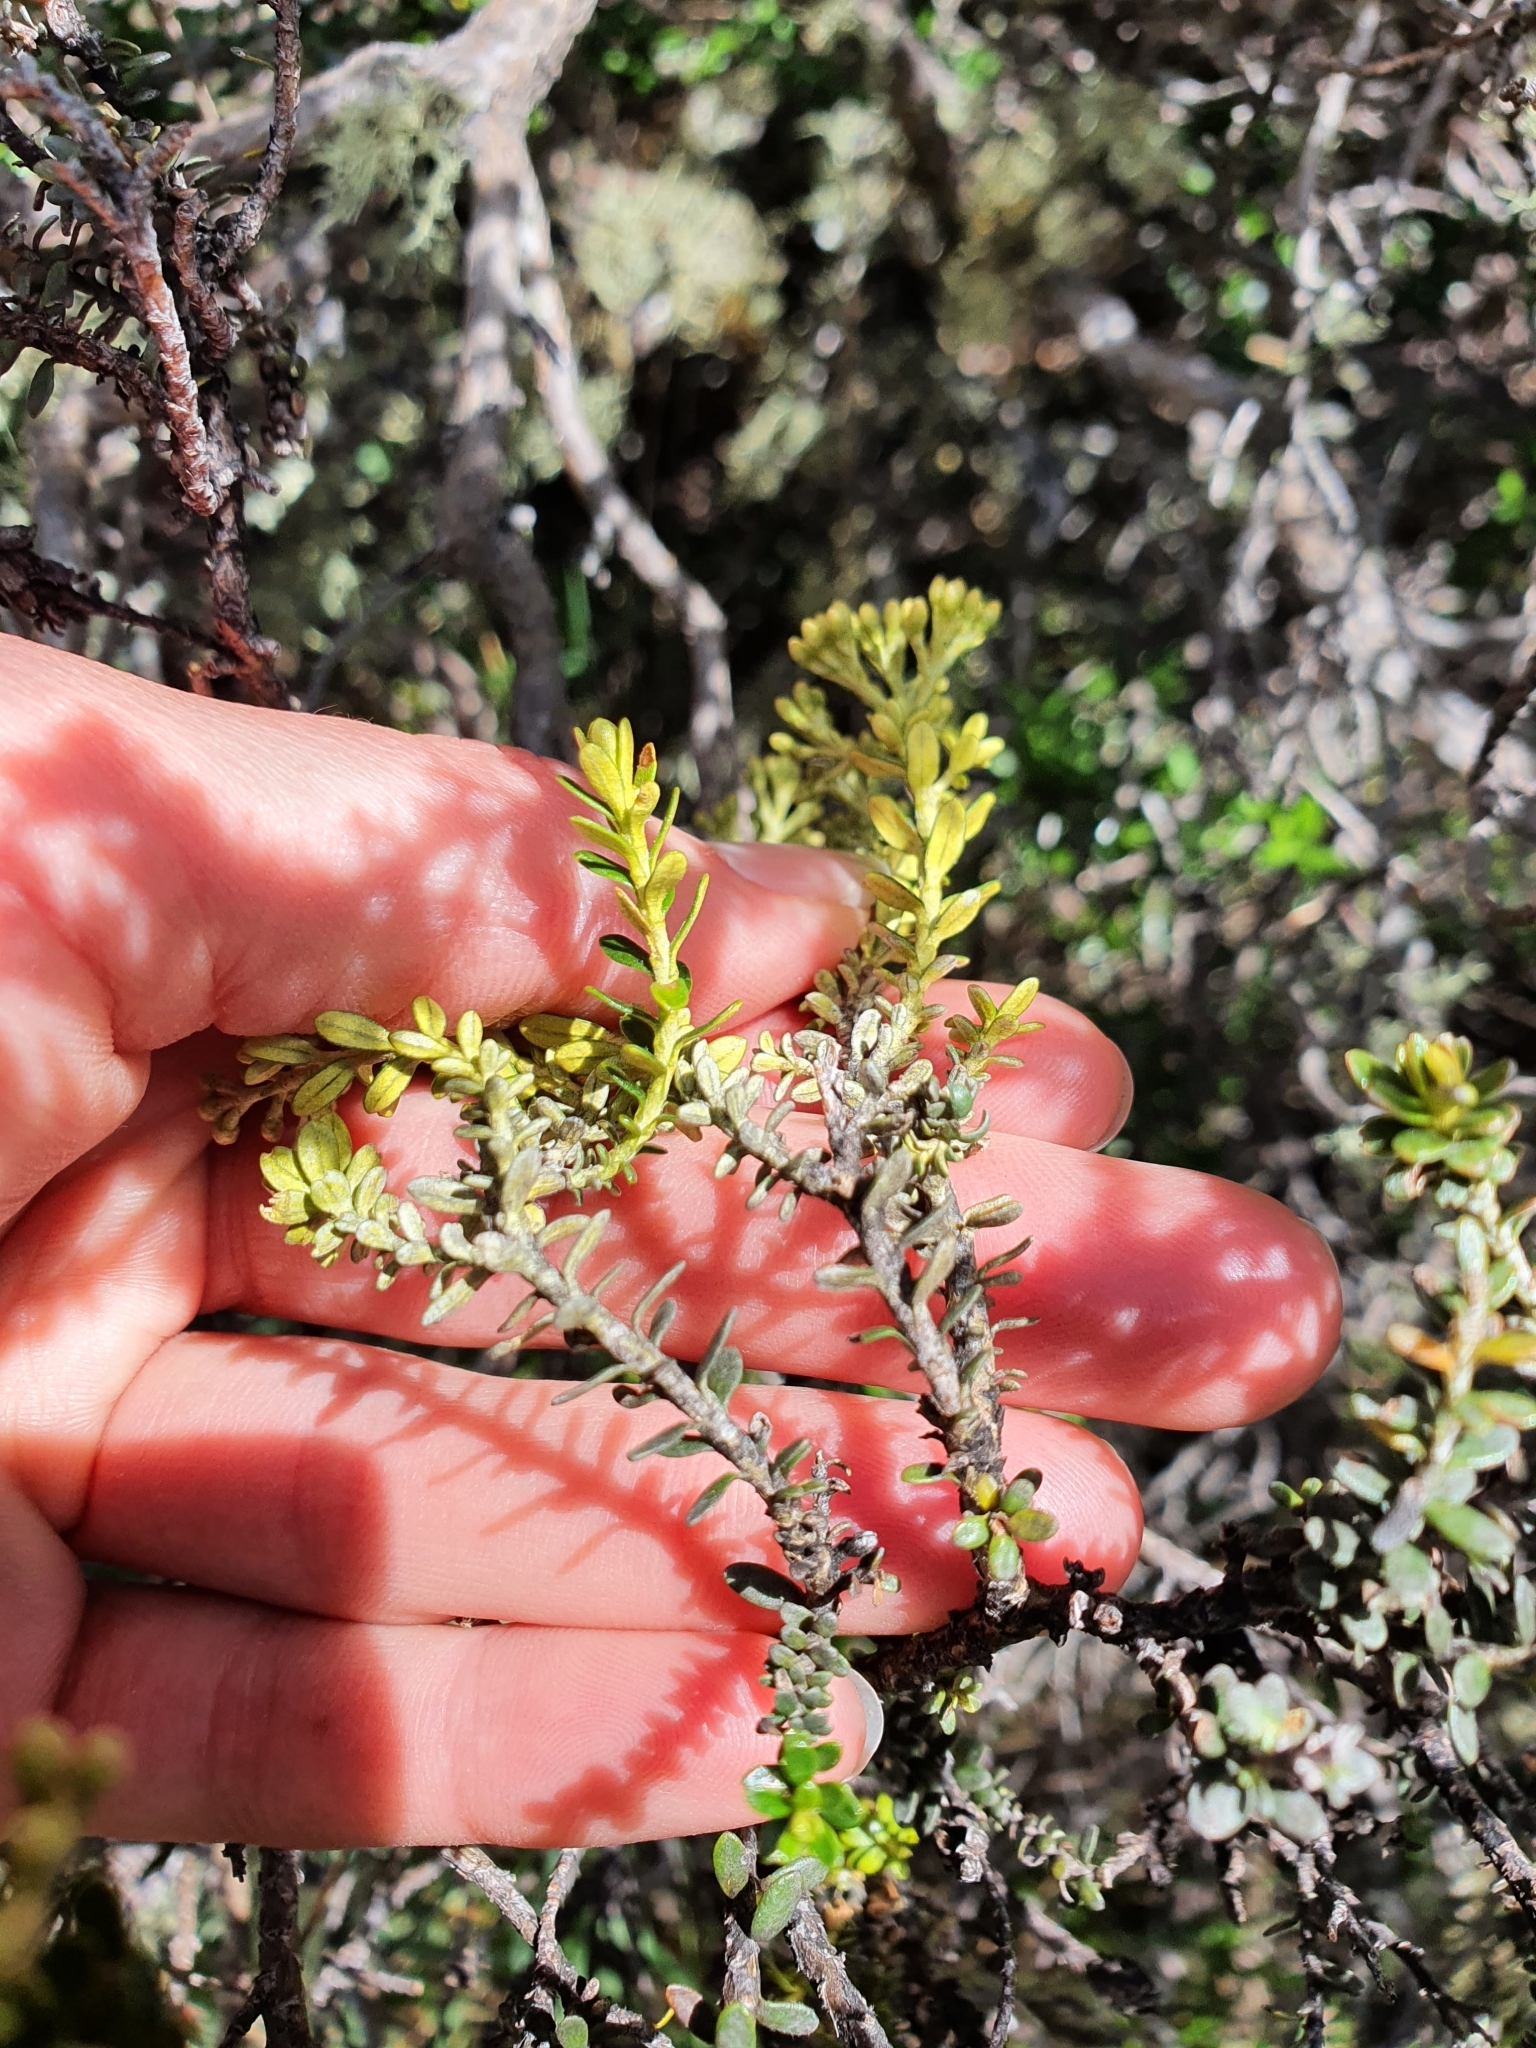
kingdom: Plantae
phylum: Tracheophyta
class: Magnoliopsida
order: Asterales
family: Asteraceae
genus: Ozothamnus
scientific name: Ozothamnus leptophyllus
